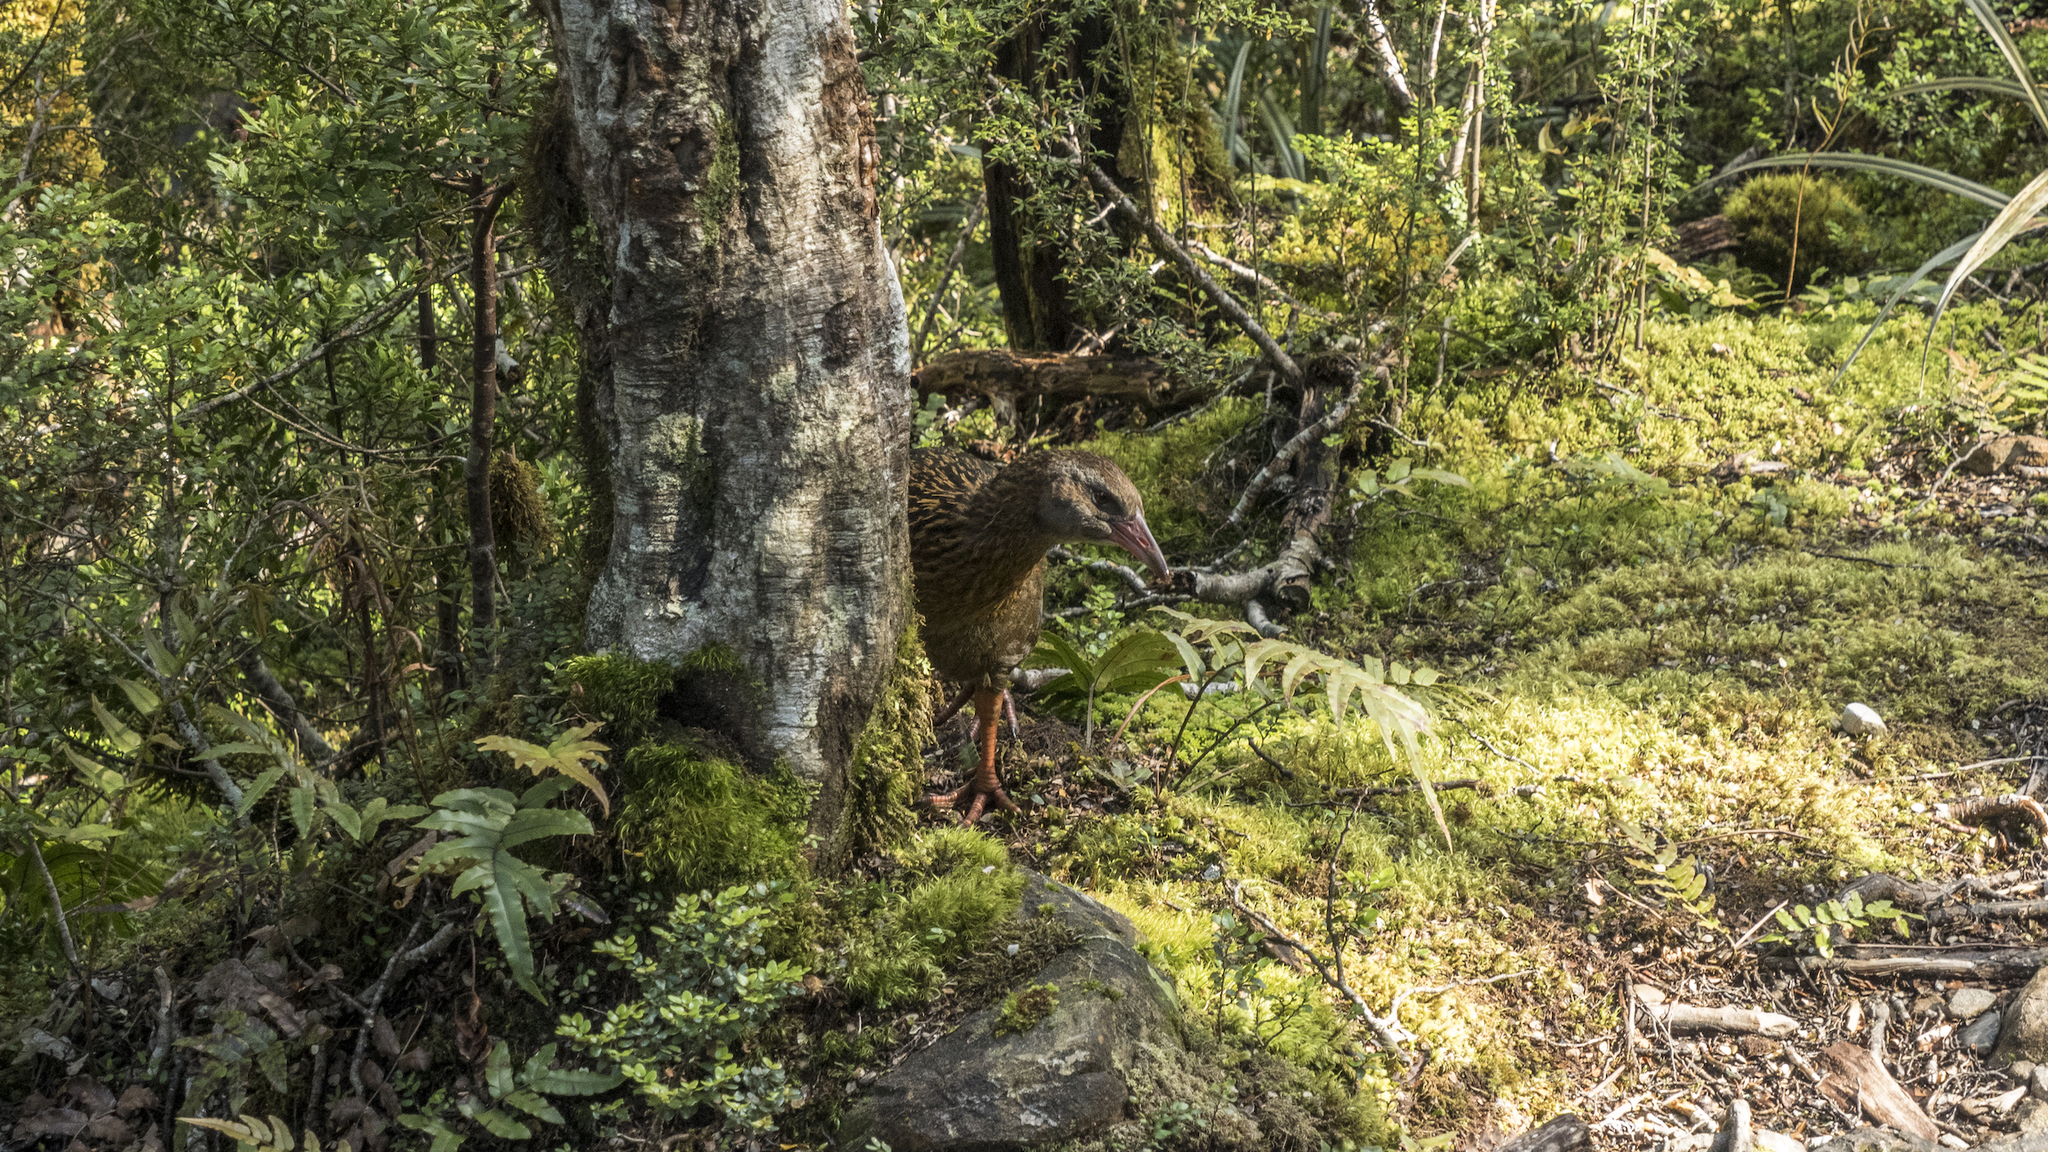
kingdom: Animalia
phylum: Chordata
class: Aves
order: Gruiformes
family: Rallidae
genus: Gallirallus
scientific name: Gallirallus australis
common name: Weka
